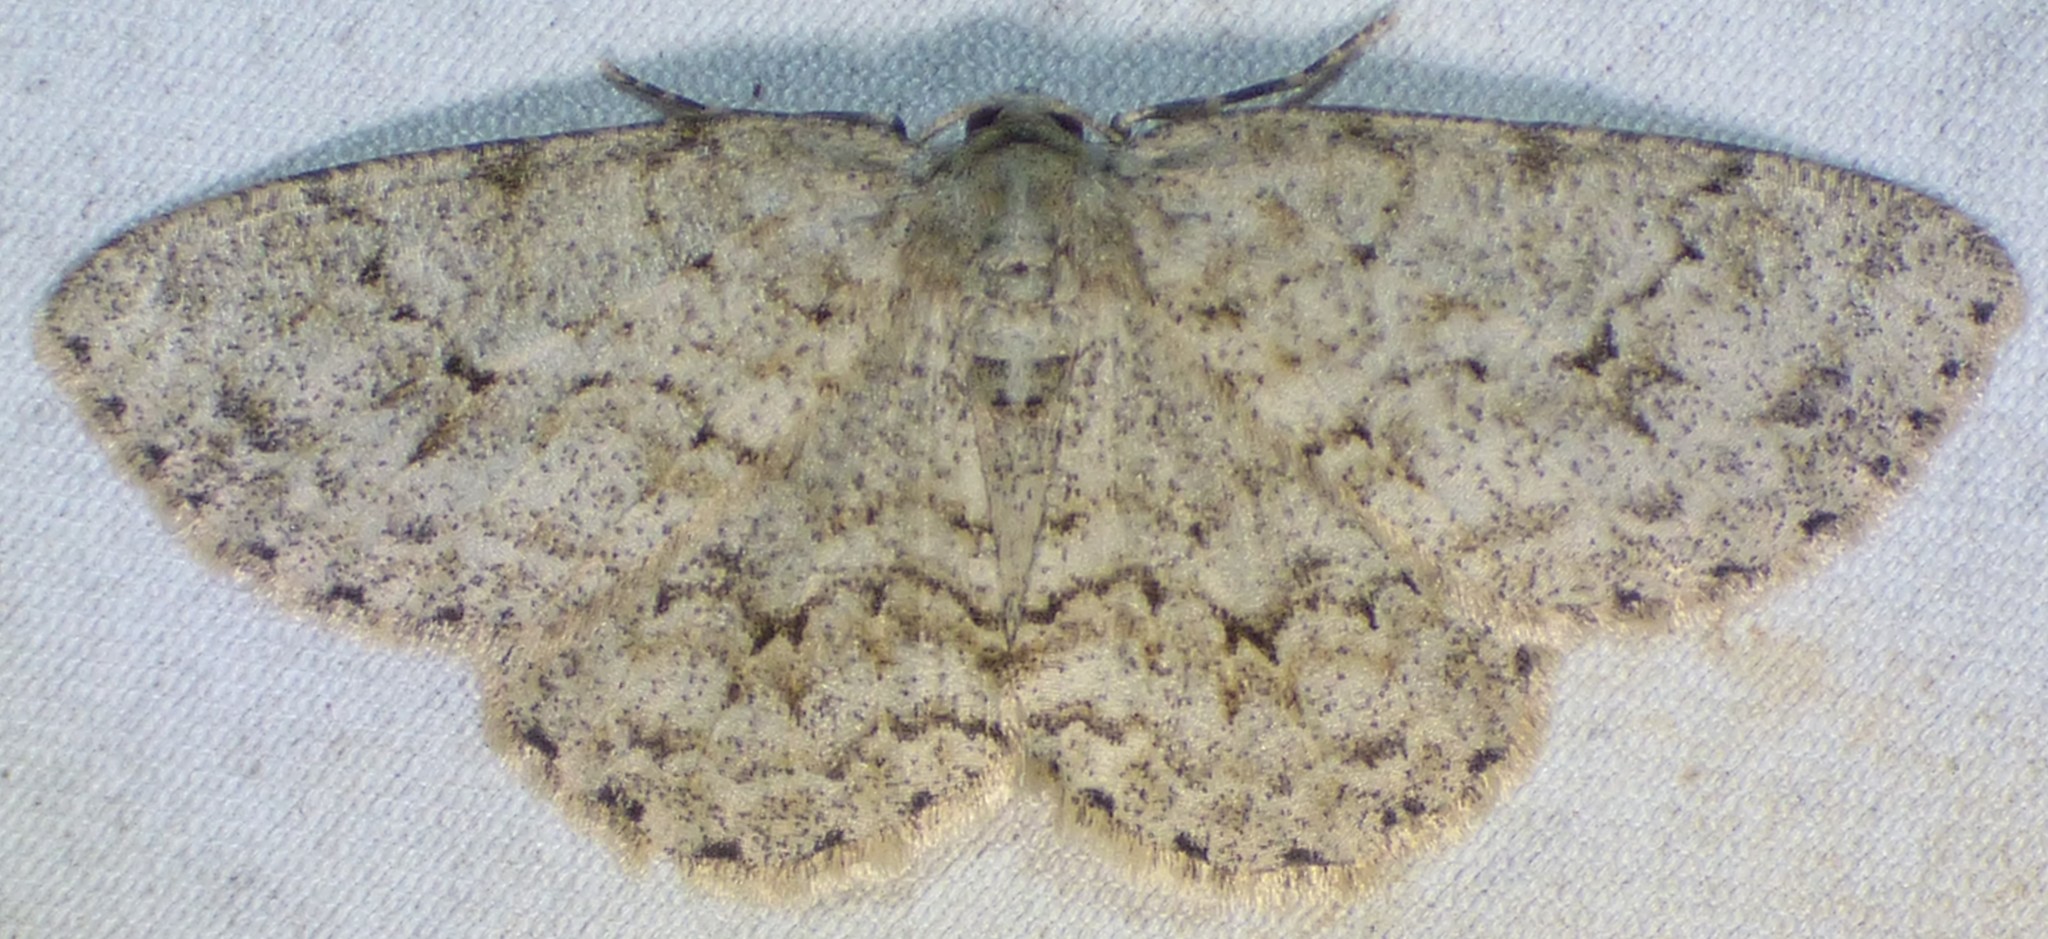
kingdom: Animalia
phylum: Arthropoda
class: Insecta
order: Lepidoptera
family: Geometridae
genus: Ectropis
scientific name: Ectropis crepuscularia
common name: Engrailed
